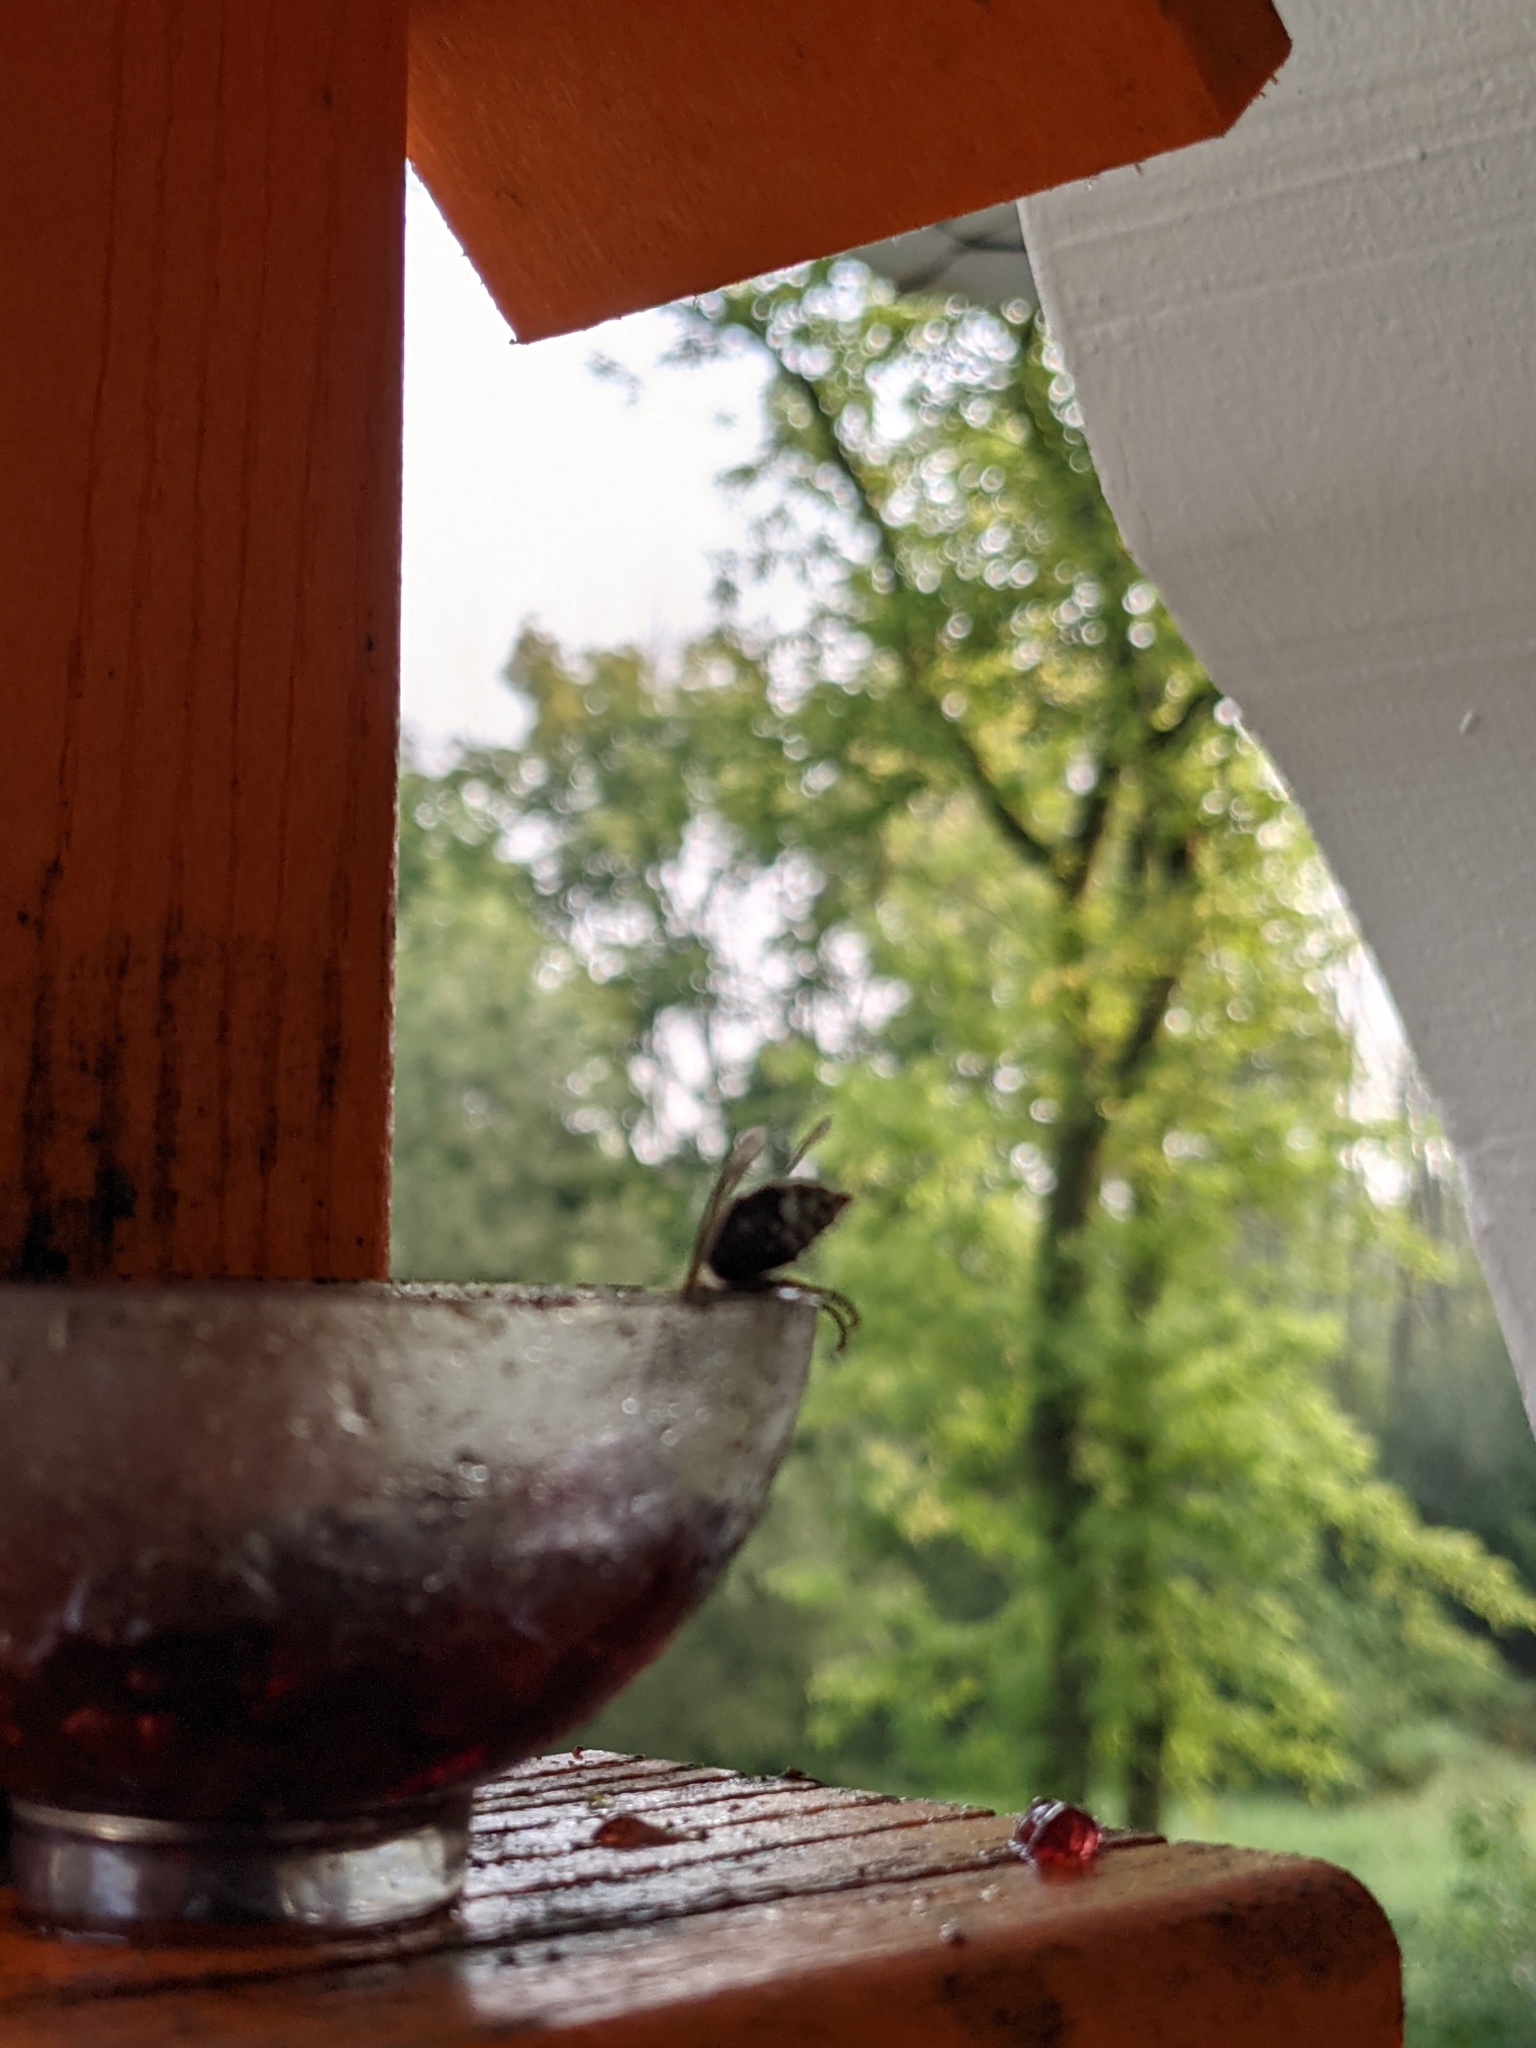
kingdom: Animalia
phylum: Arthropoda
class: Insecta
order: Hymenoptera
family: Vespidae
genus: Dolichovespula
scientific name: Dolichovespula maculata
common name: Bald-faced hornet
